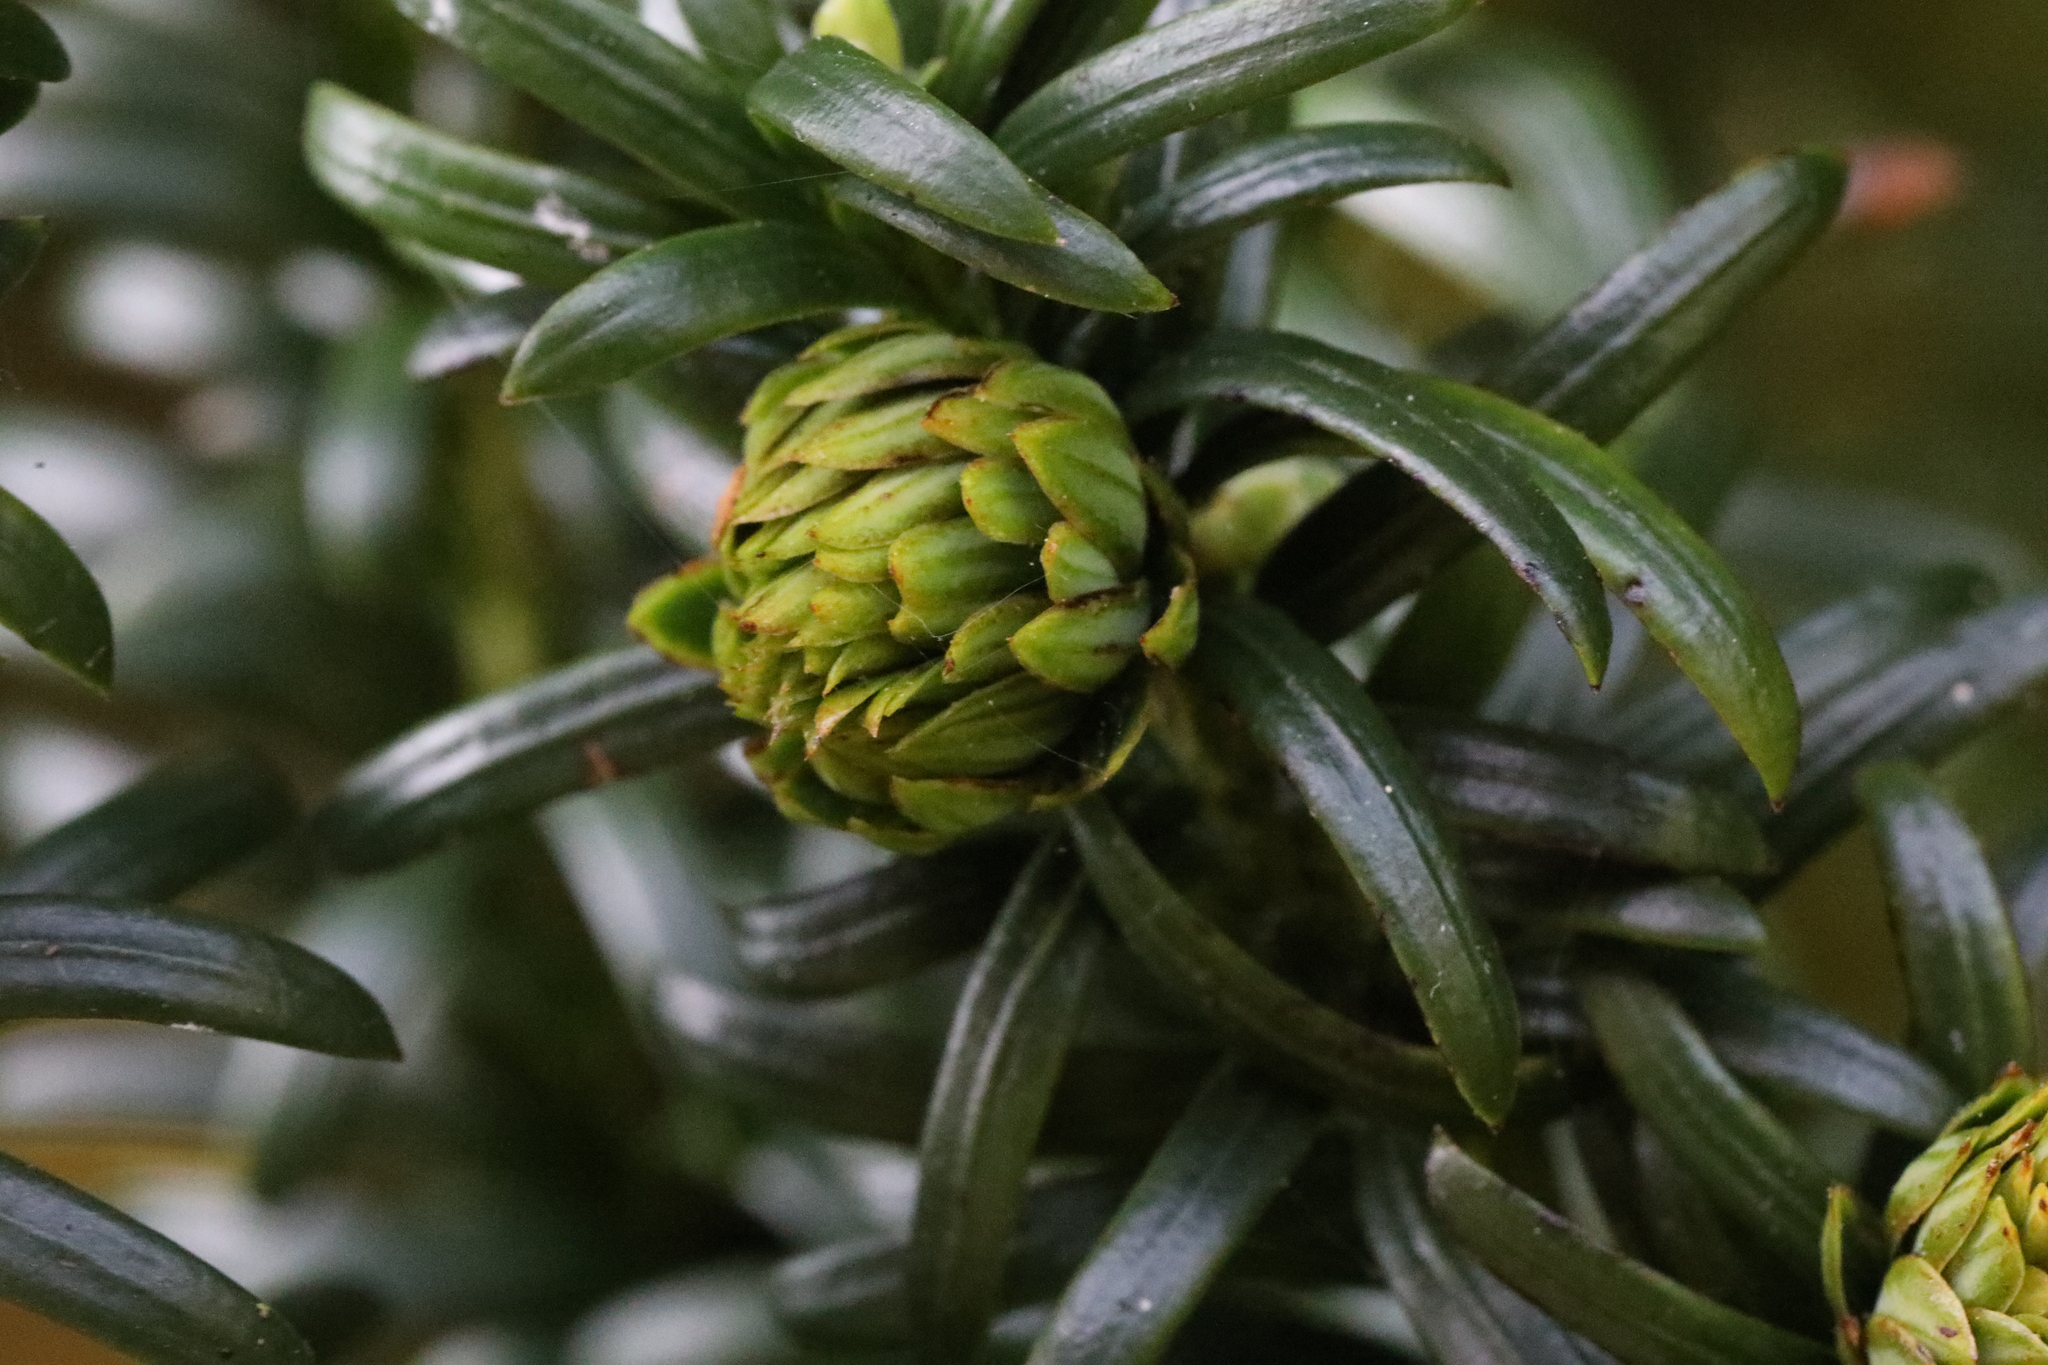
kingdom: Animalia
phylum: Arthropoda
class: Insecta
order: Diptera
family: Cecidomyiidae
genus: Taxomyia
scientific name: Taxomyia taxi
